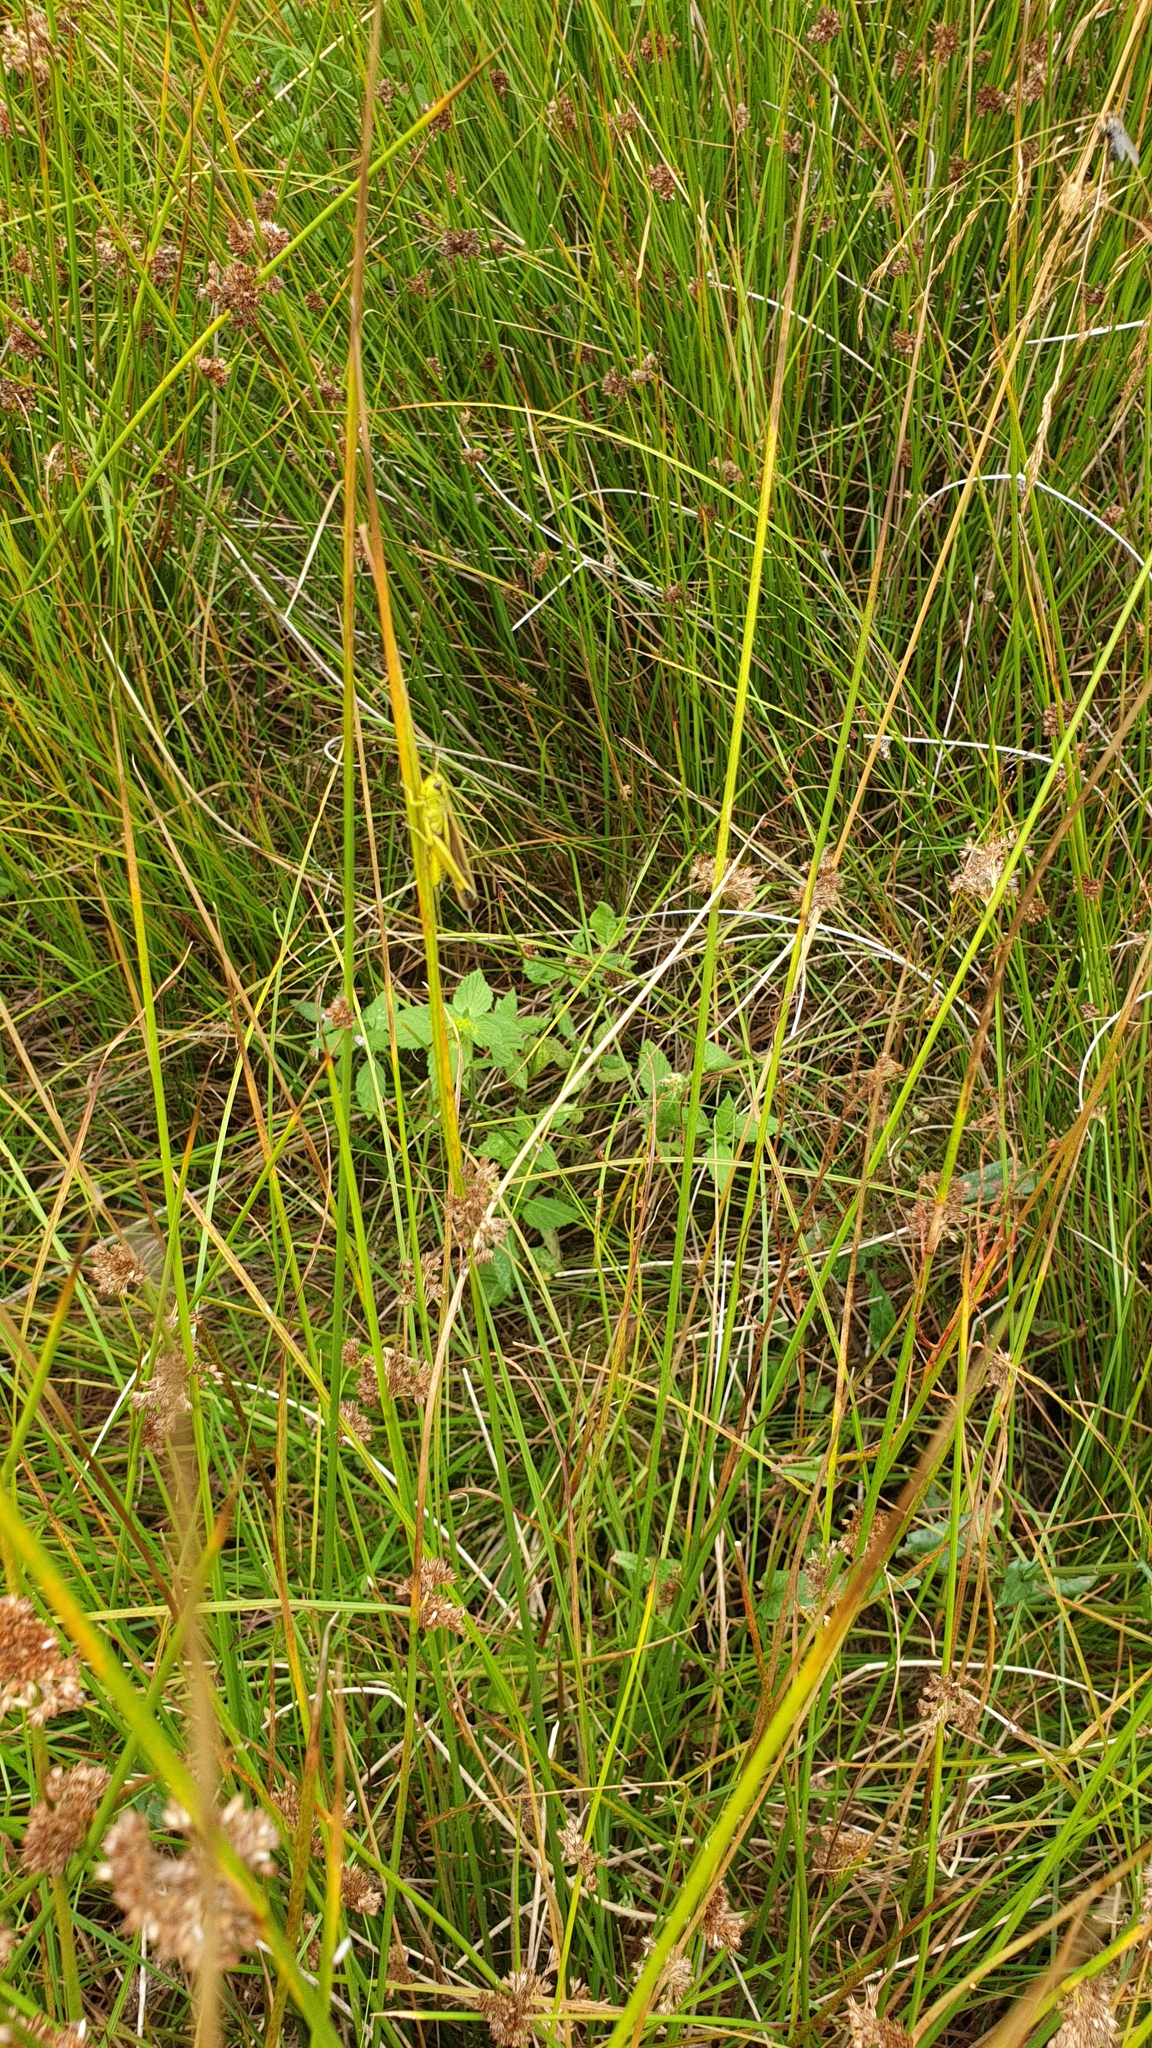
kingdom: Animalia
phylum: Arthropoda
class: Insecta
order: Orthoptera
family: Acrididae
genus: Stethophyma
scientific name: Stethophyma grossum
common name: Large marsh grasshopper
